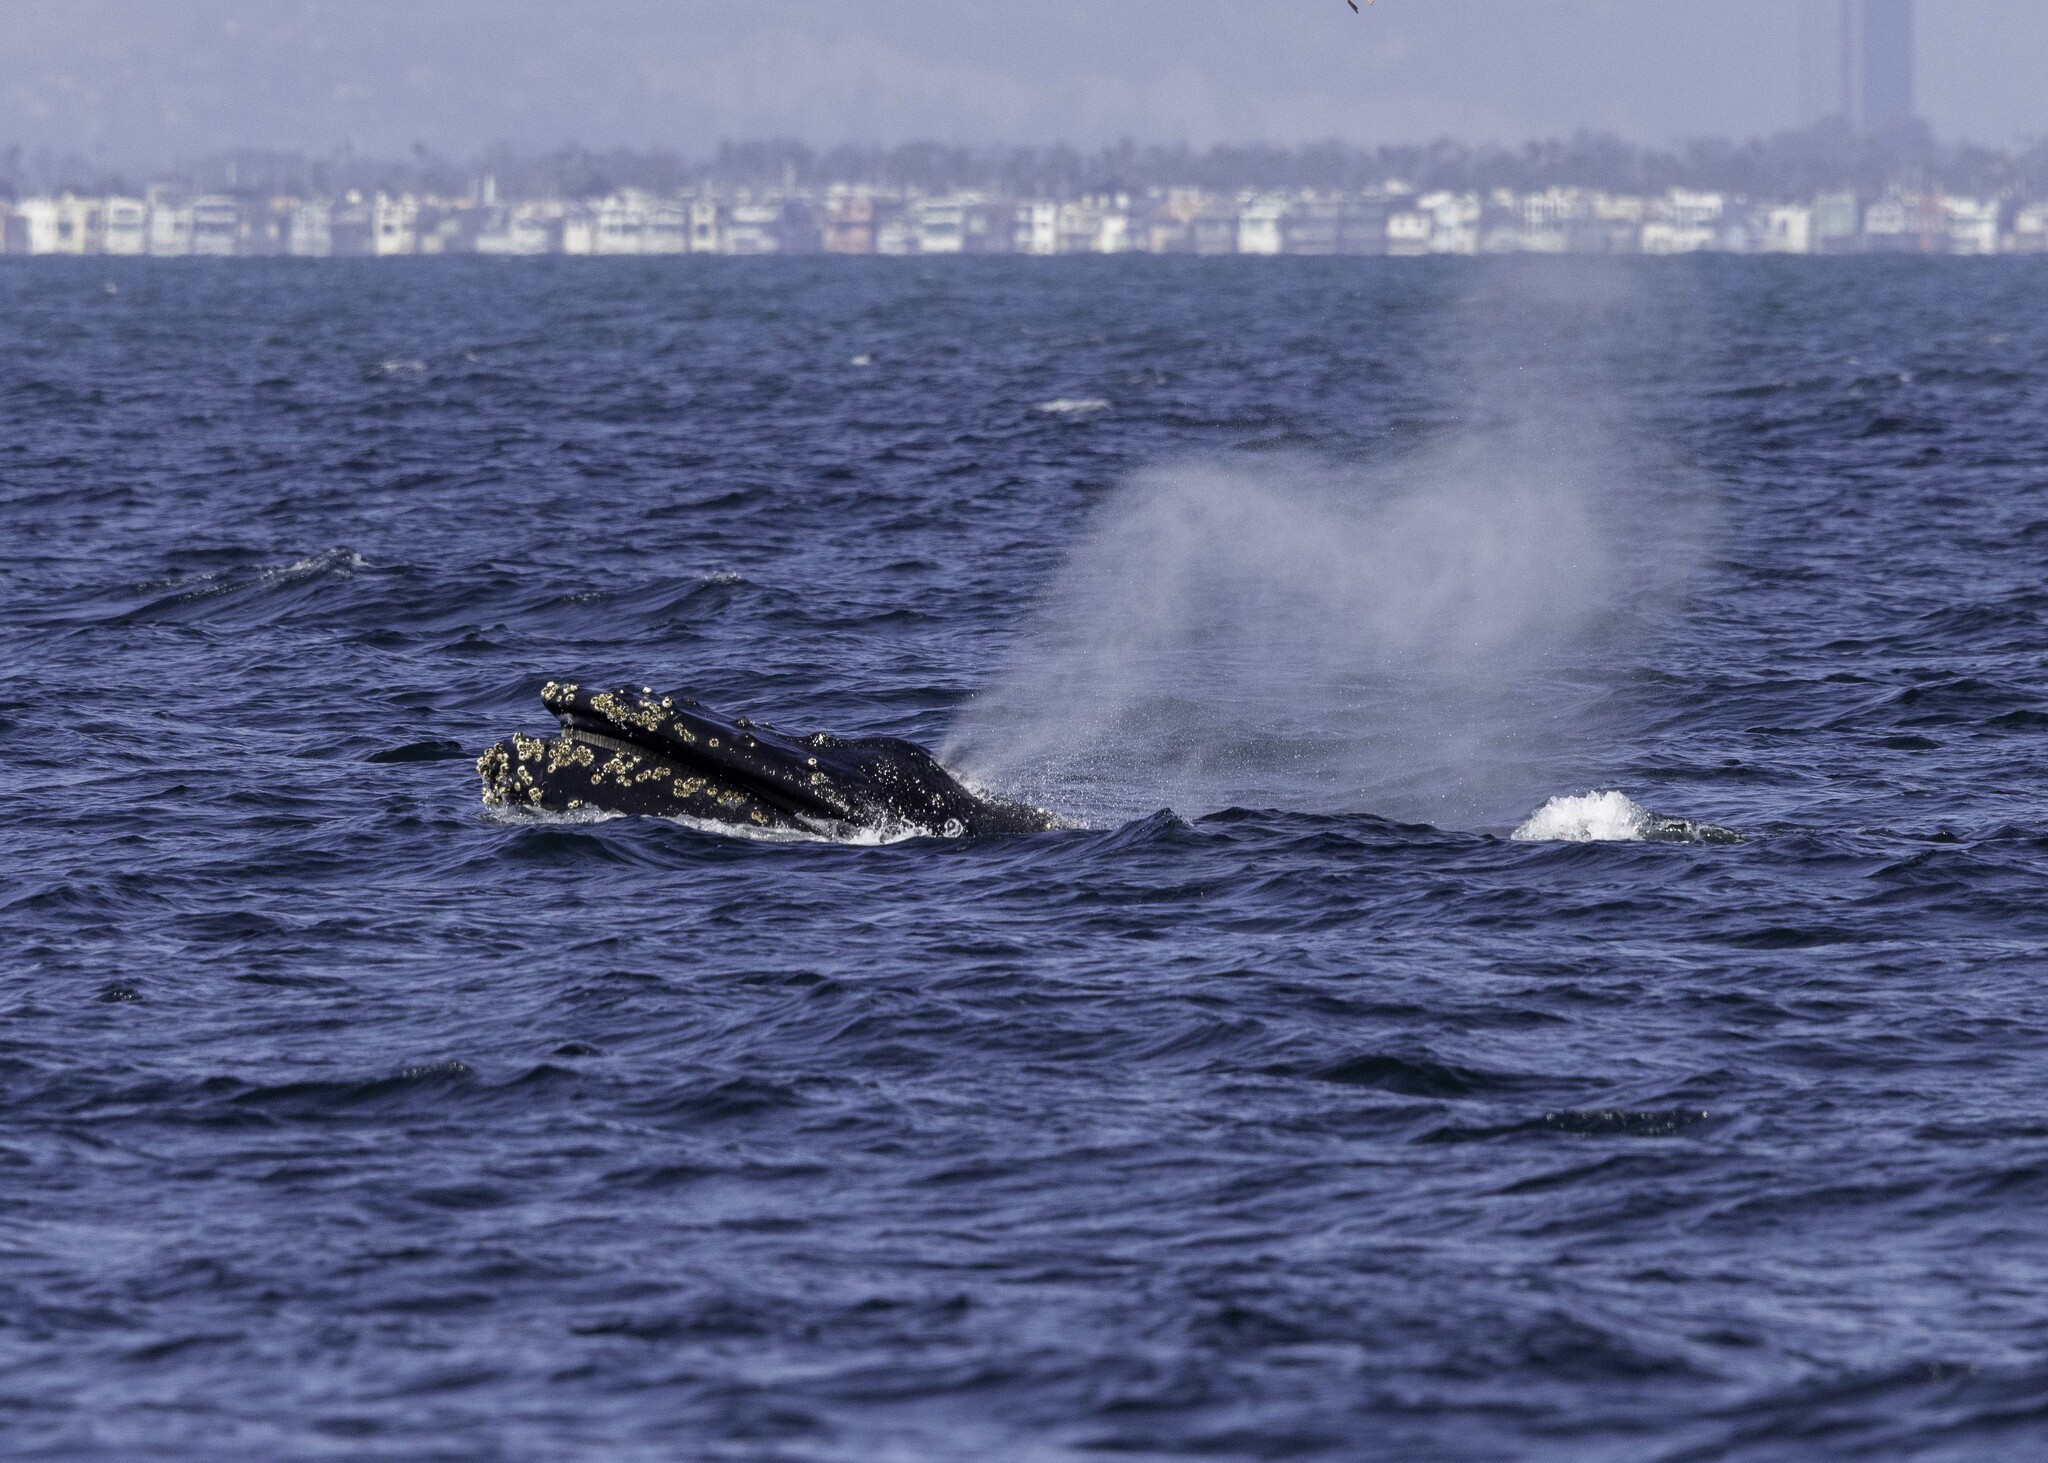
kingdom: Animalia
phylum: Chordata
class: Mammalia
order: Cetacea
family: Balaenopteridae
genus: Megaptera
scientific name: Megaptera novaeangliae
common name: Humpback whale
